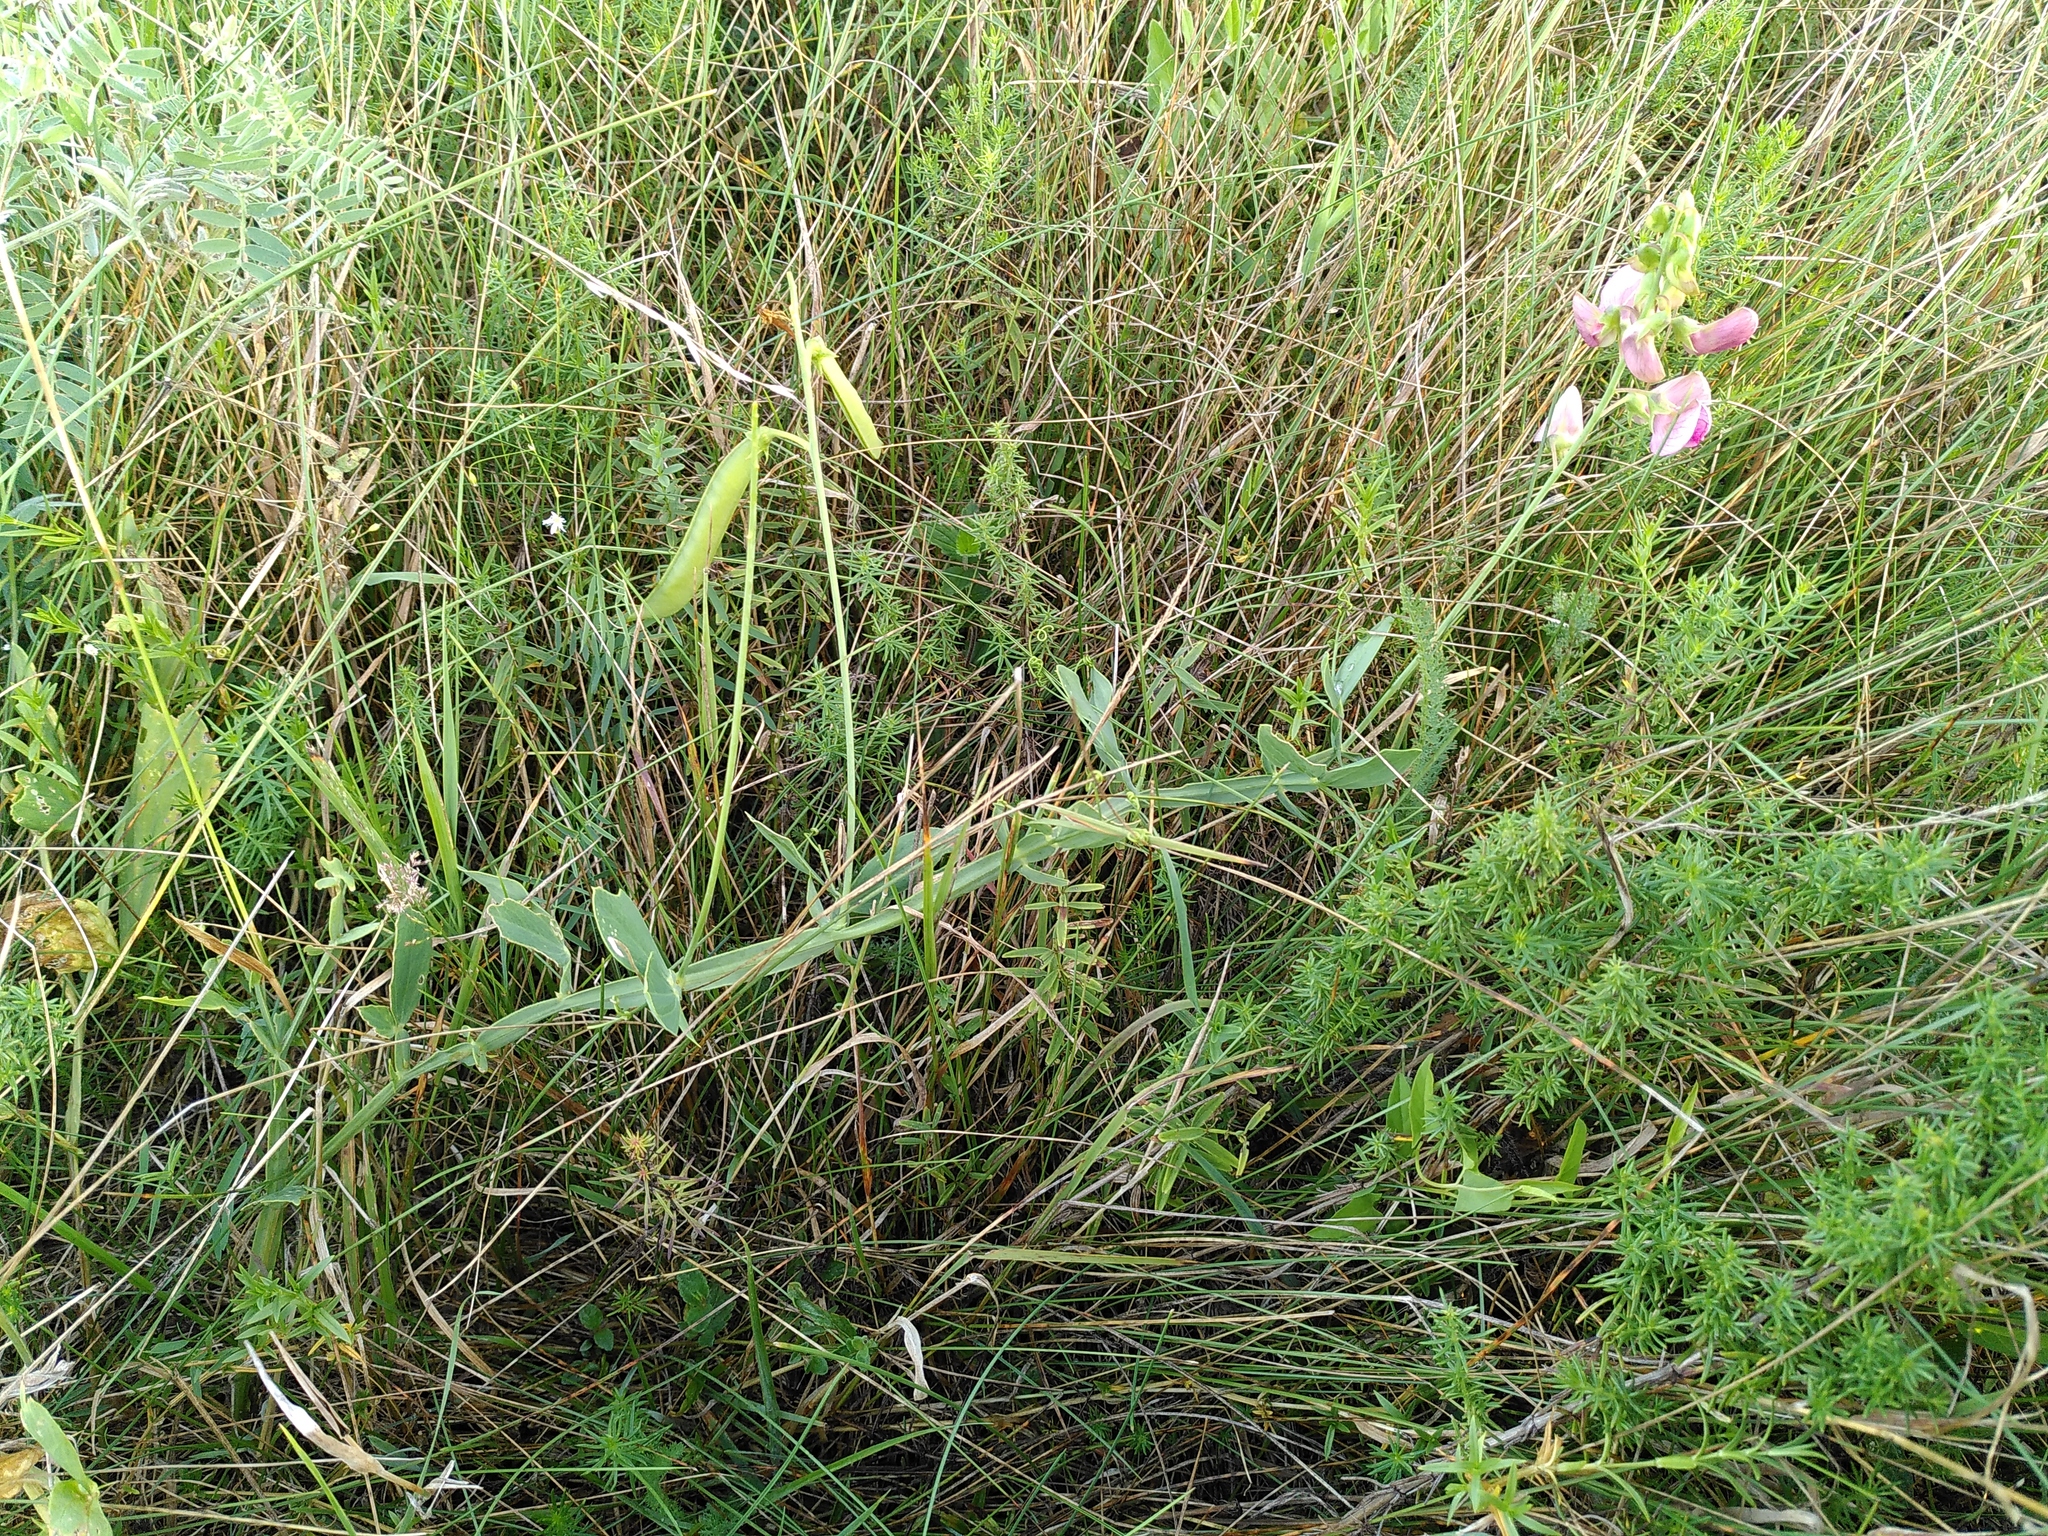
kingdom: Plantae
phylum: Tracheophyta
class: Magnoliopsida
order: Fabales
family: Fabaceae
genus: Lathyrus
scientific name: Lathyrus latifolius
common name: Perennial pea
